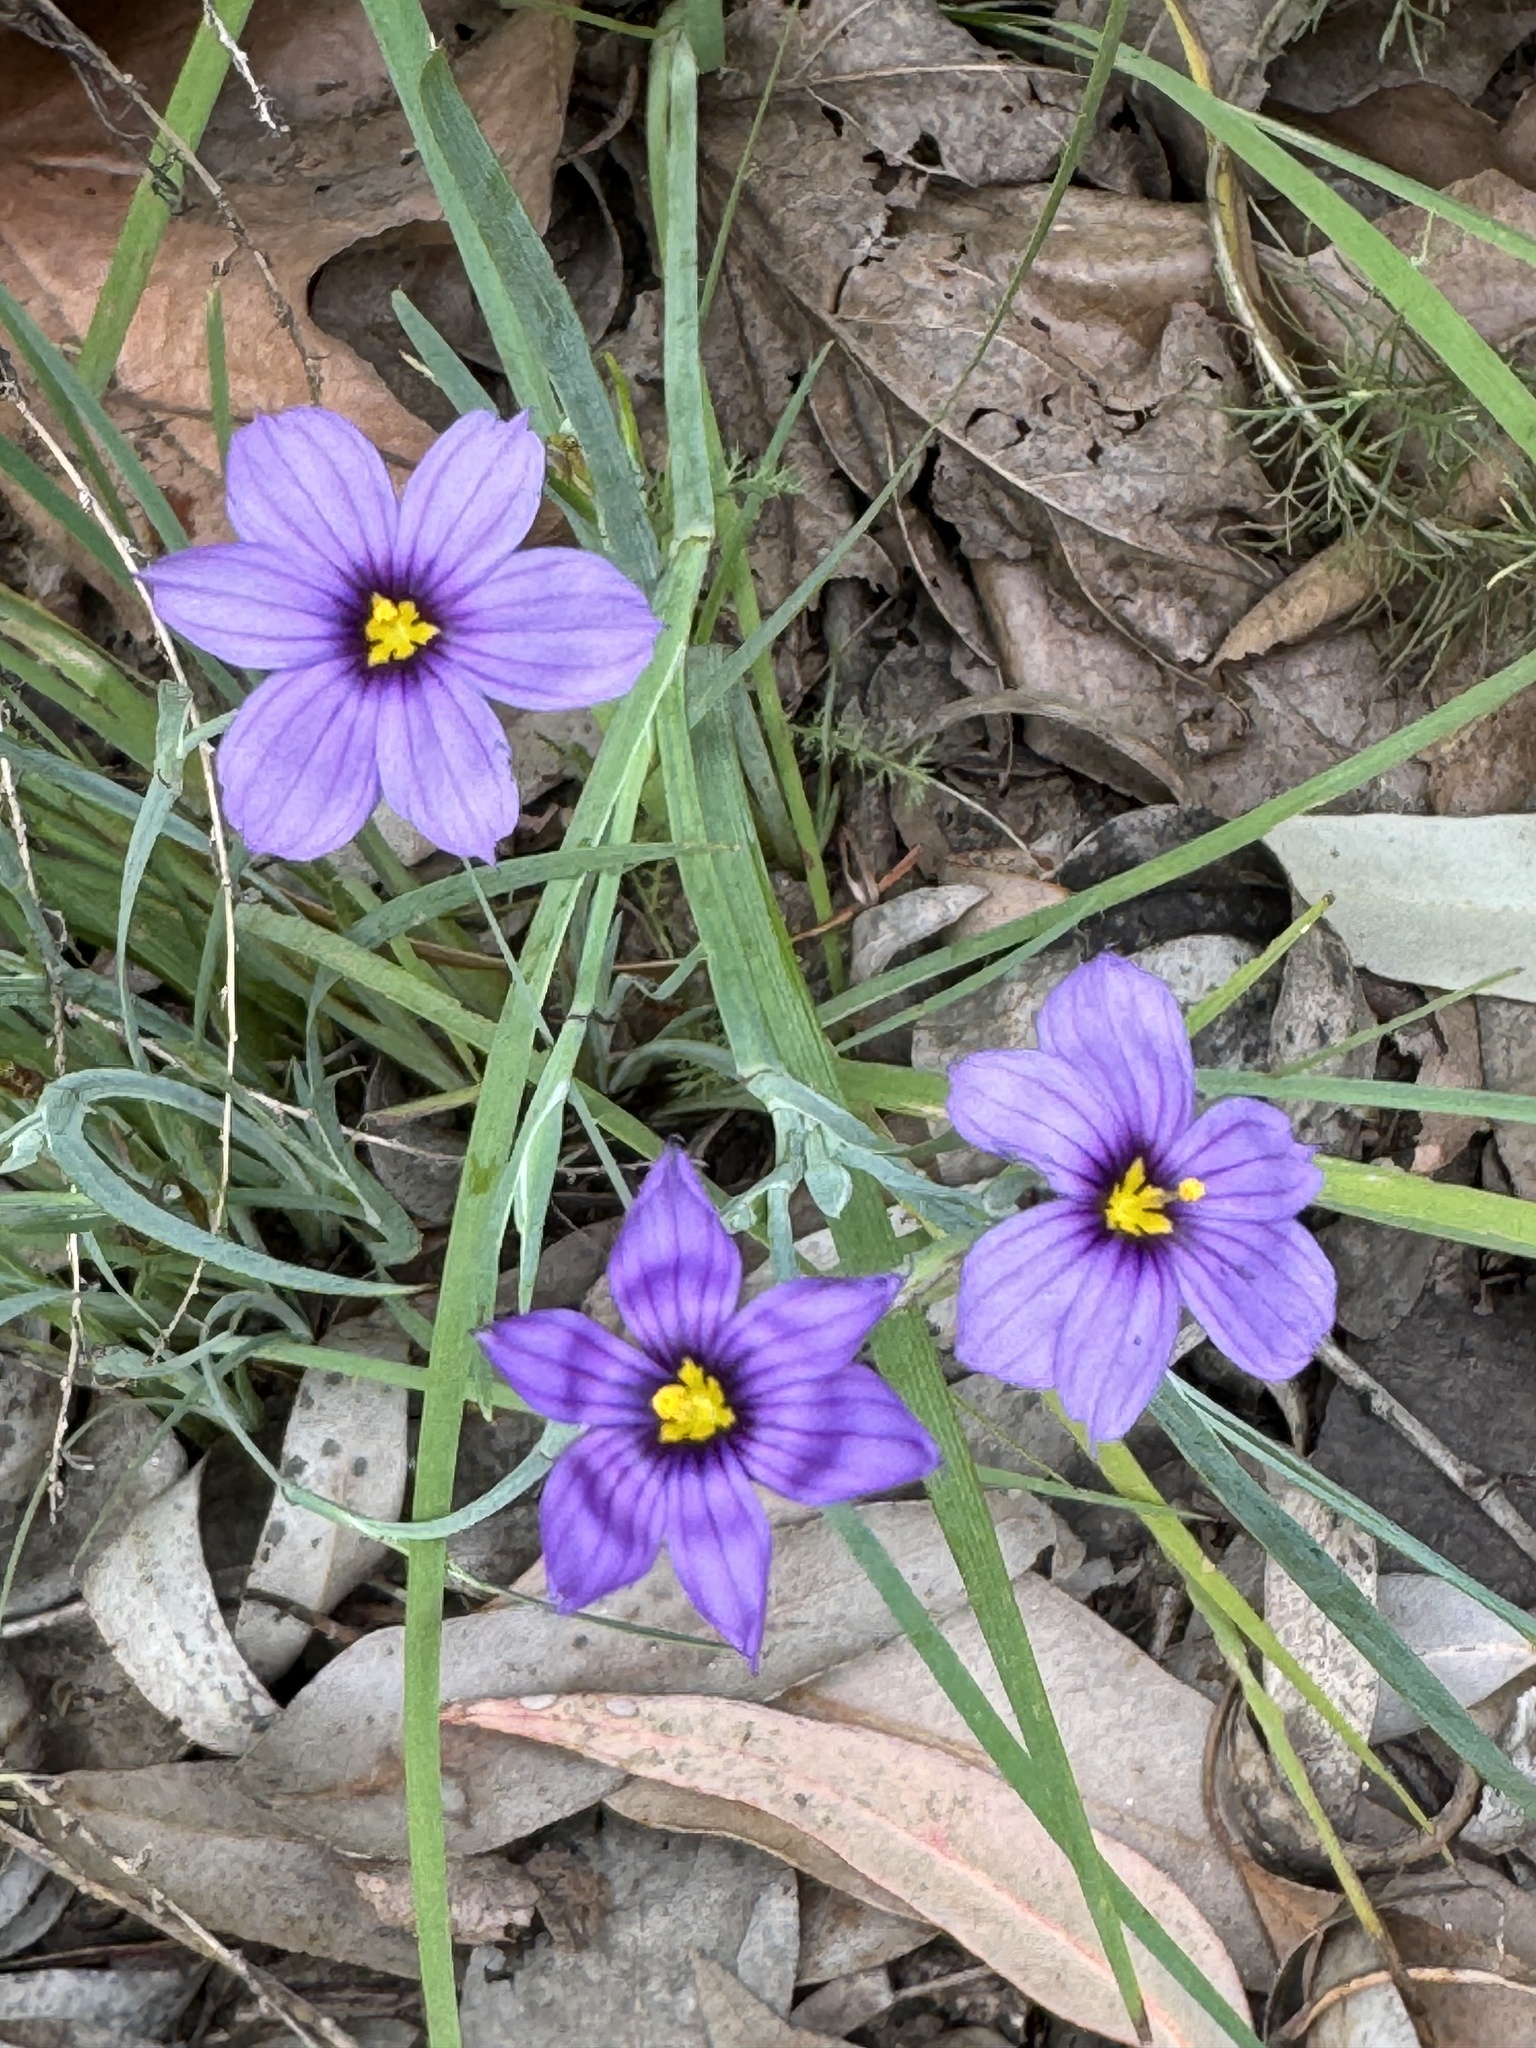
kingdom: Plantae
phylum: Tracheophyta
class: Liliopsida
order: Asparagales
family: Iridaceae
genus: Sisyrinchium
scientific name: Sisyrinchium bellum
